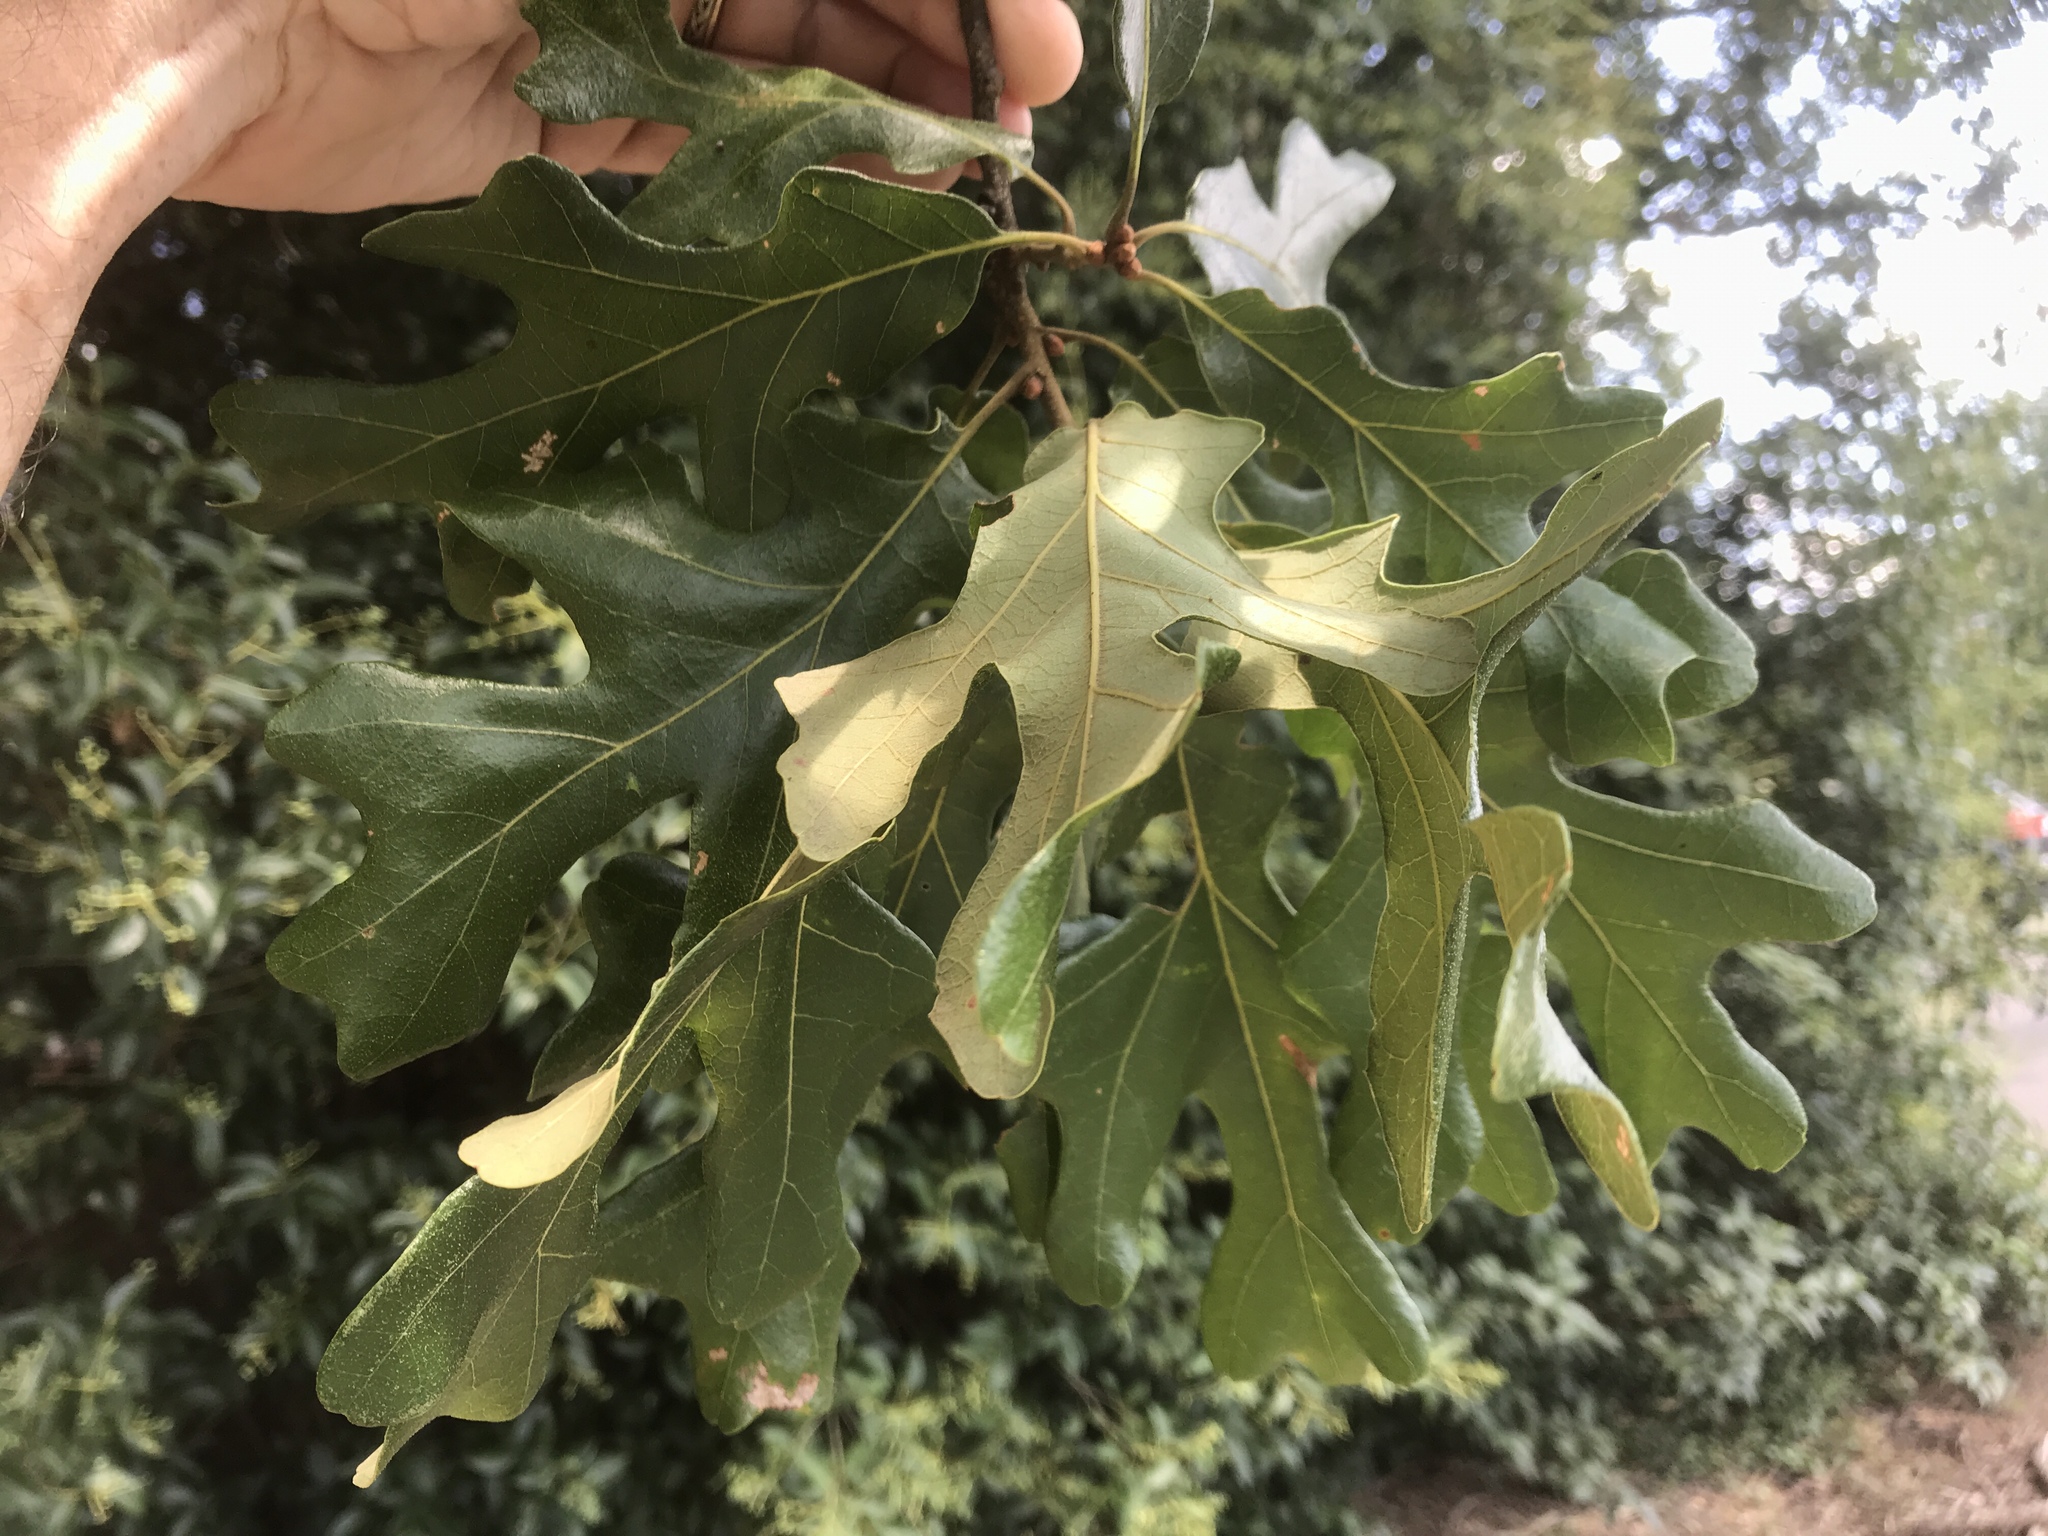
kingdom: Plantae
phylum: Tracheophyta
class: Magnoliopsida
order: Fagales
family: Fagaceae
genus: Quercus
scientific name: Quercus stellata
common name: Post oak
